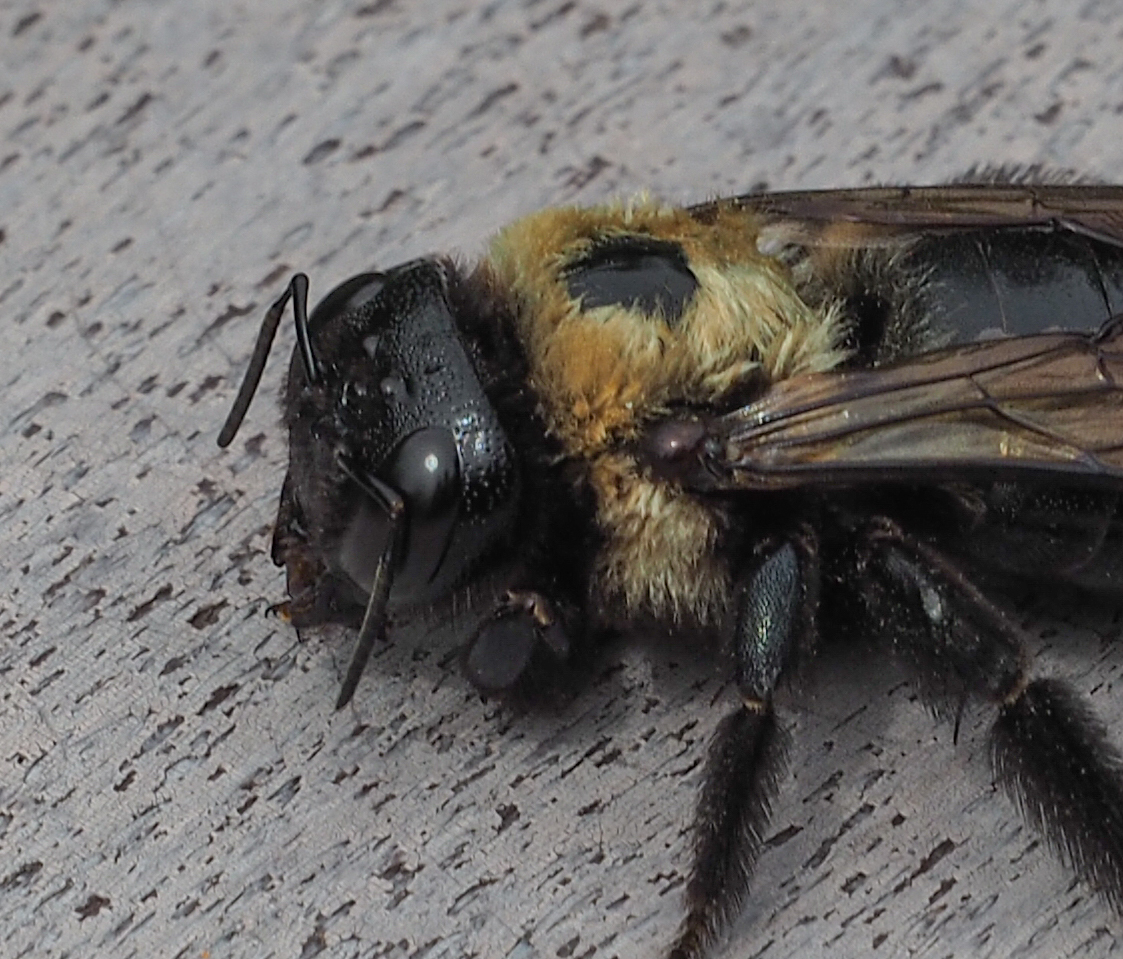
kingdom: Animalia
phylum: Arthropoda
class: Insecta
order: Hymenoptera
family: Apidae
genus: Xylocopa
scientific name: Xylocopa virginica
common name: Carpenter bee
